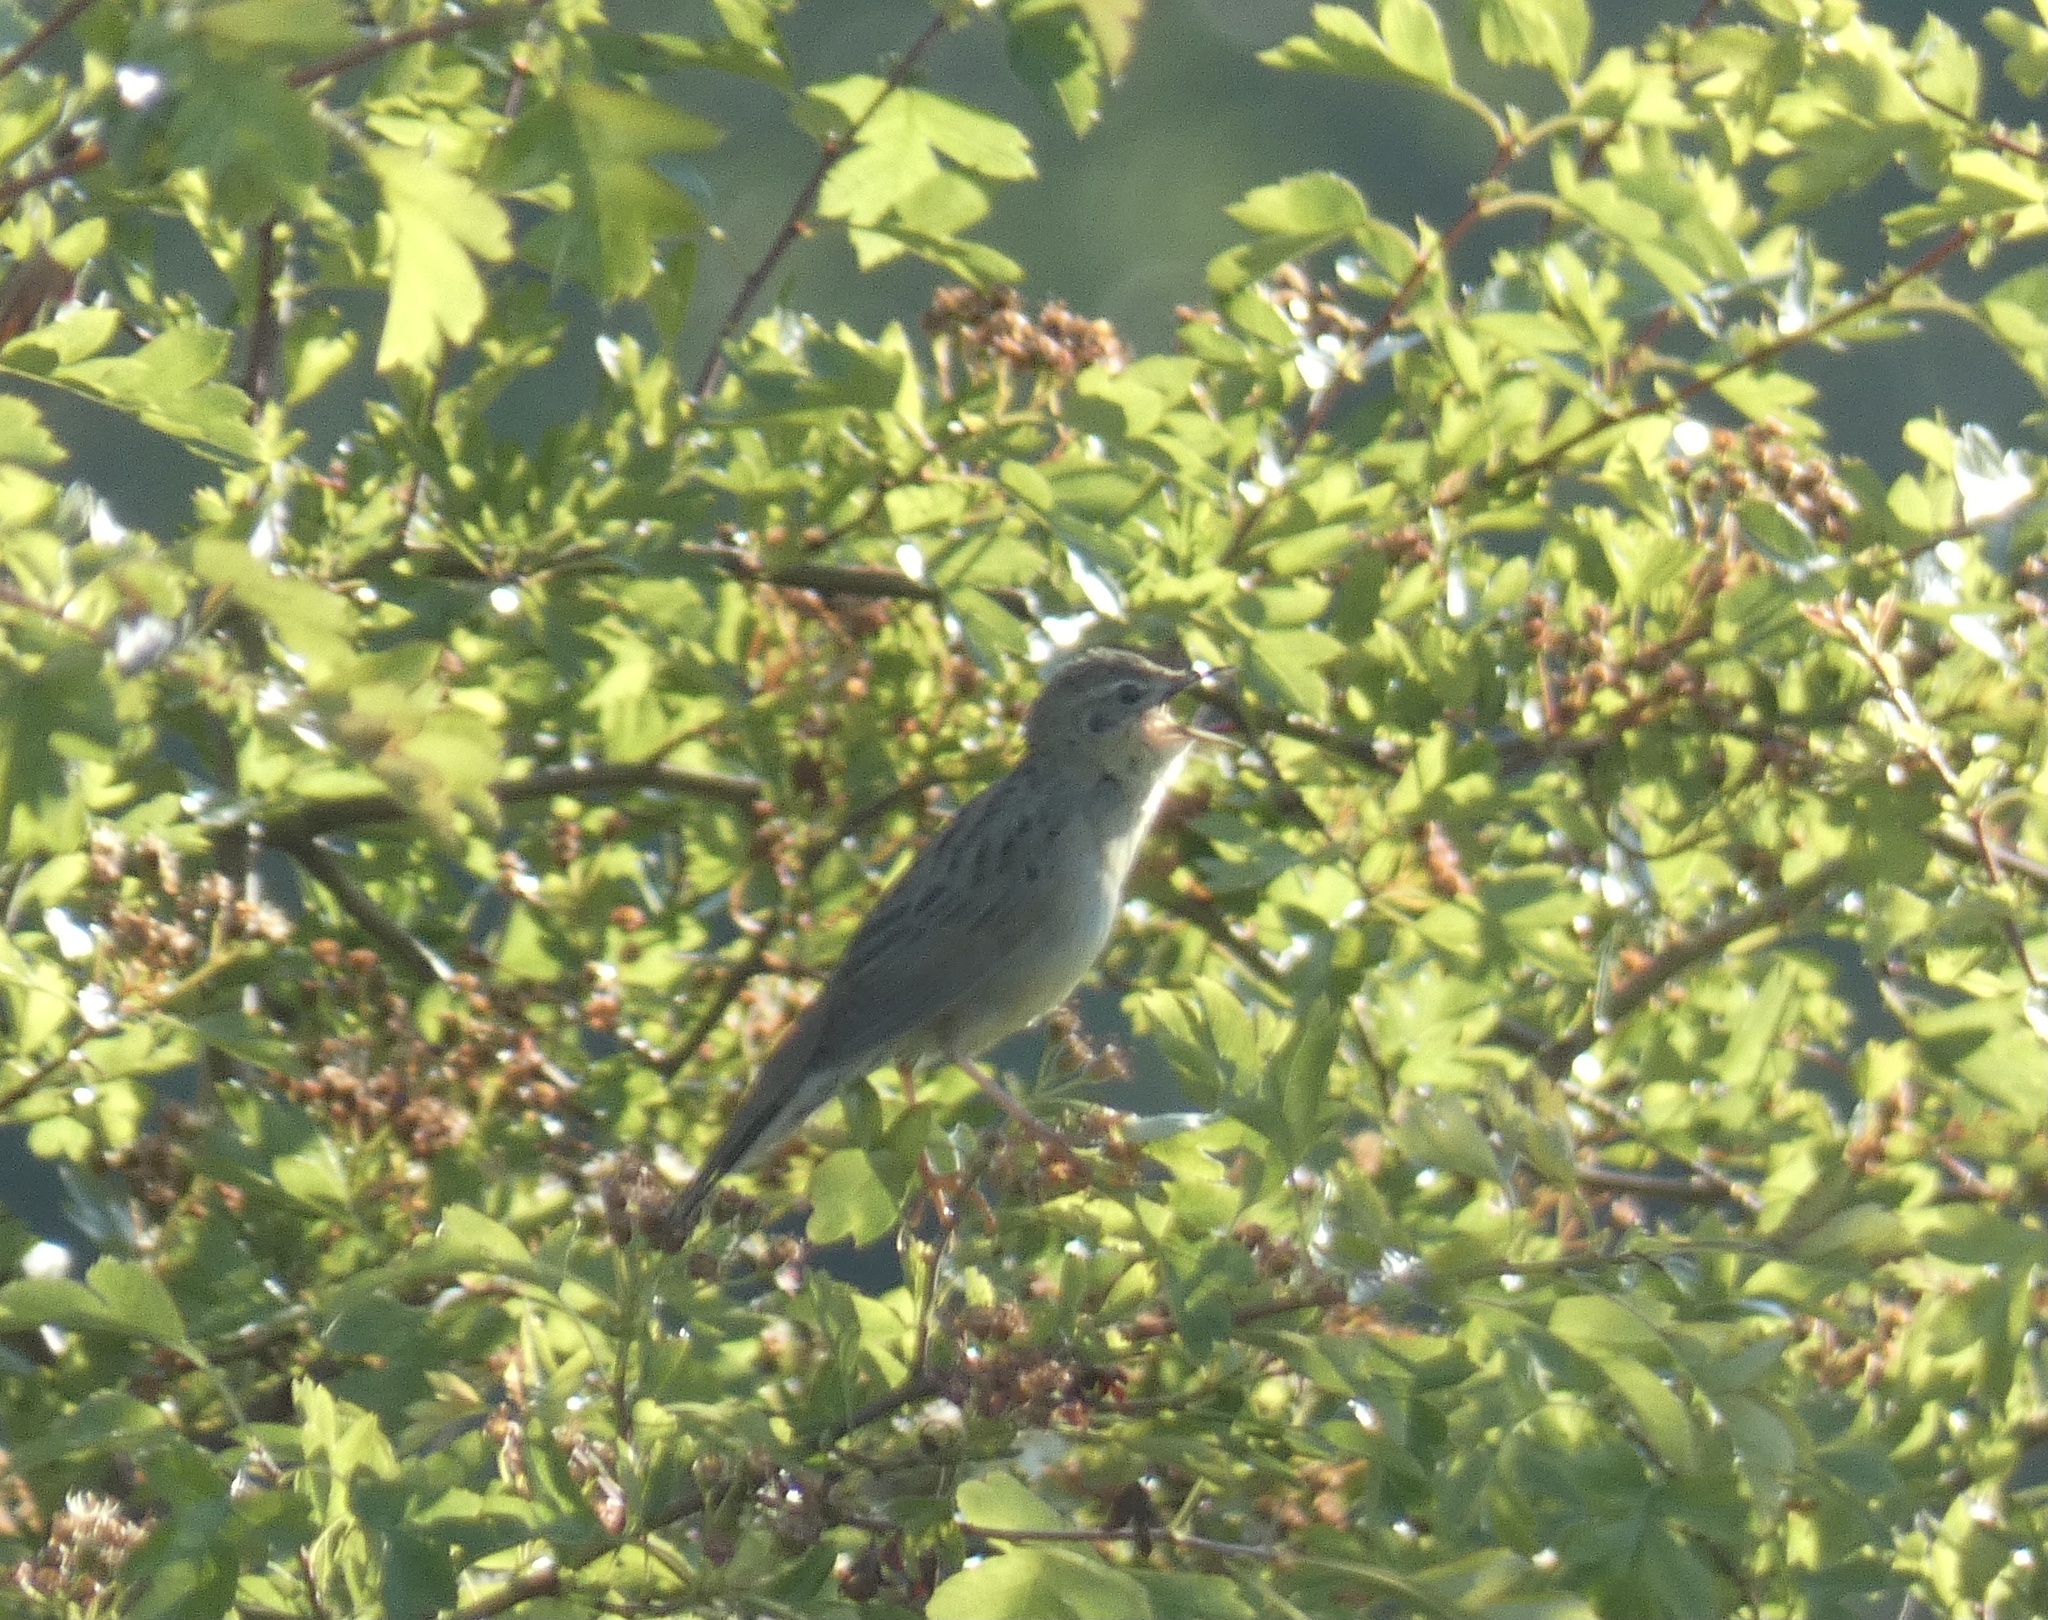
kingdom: Animalia
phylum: Chordata
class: Aves
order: Passeriformes
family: Locustellidae
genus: Locustella
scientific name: Locustella naevia
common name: Common grasshopper warbler
